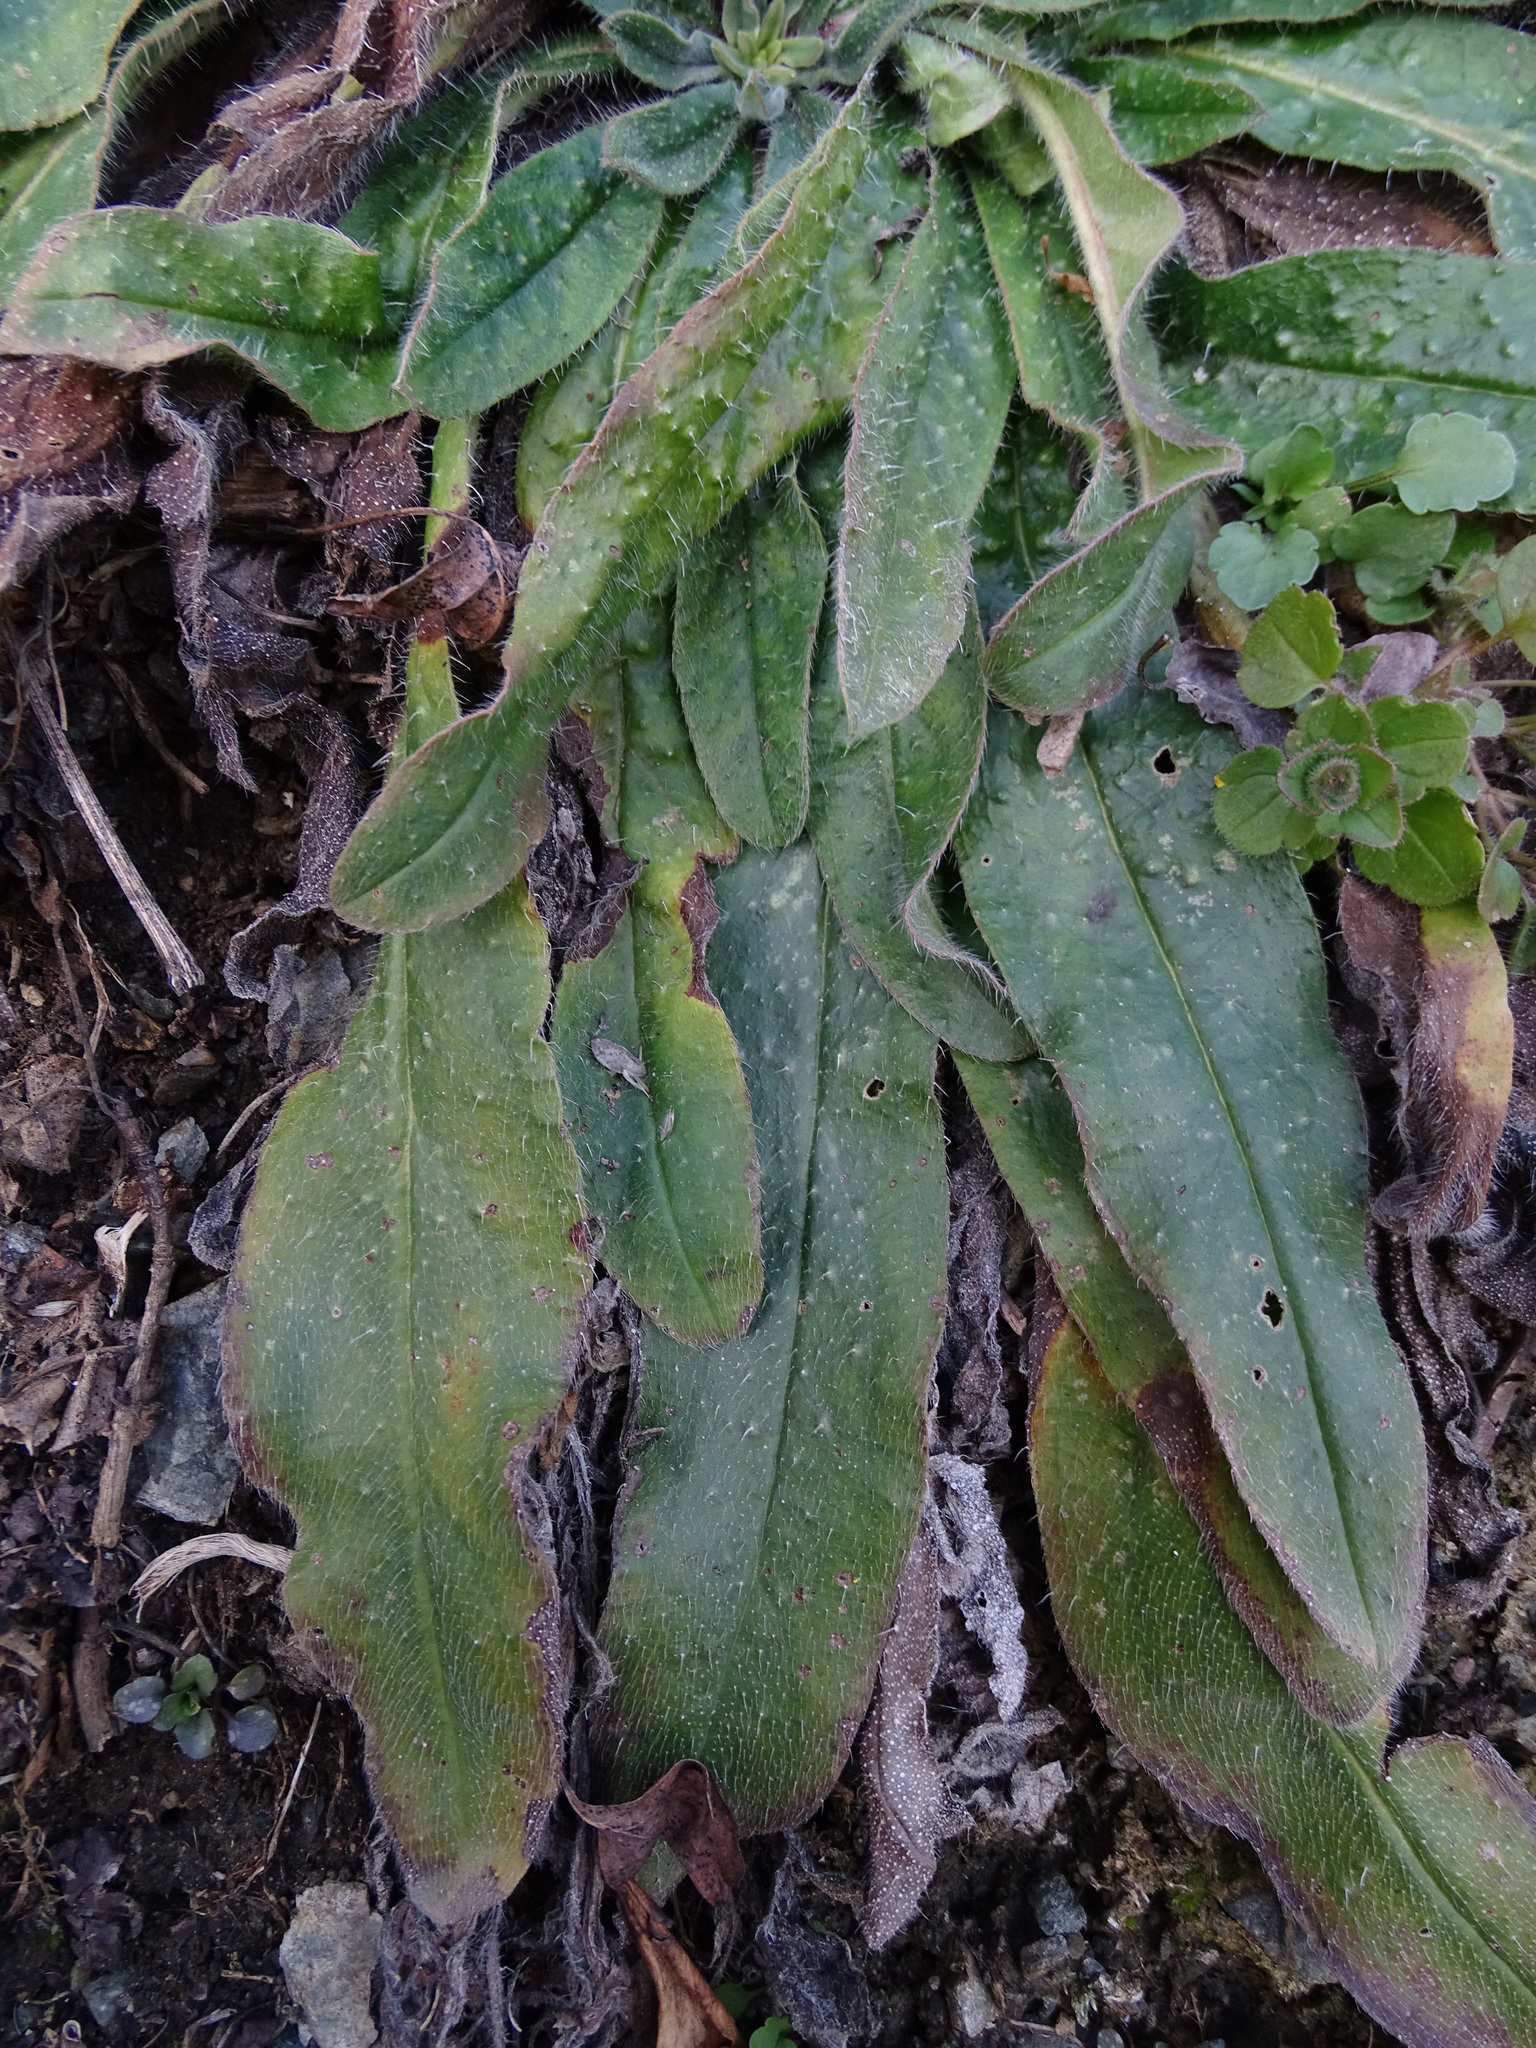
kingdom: Plantae
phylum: Tracheophyta
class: Magnoliopsida
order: Boraginales
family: Boraginaceae
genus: Echium
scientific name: Echium vulgare
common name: Common viper's bugloss
